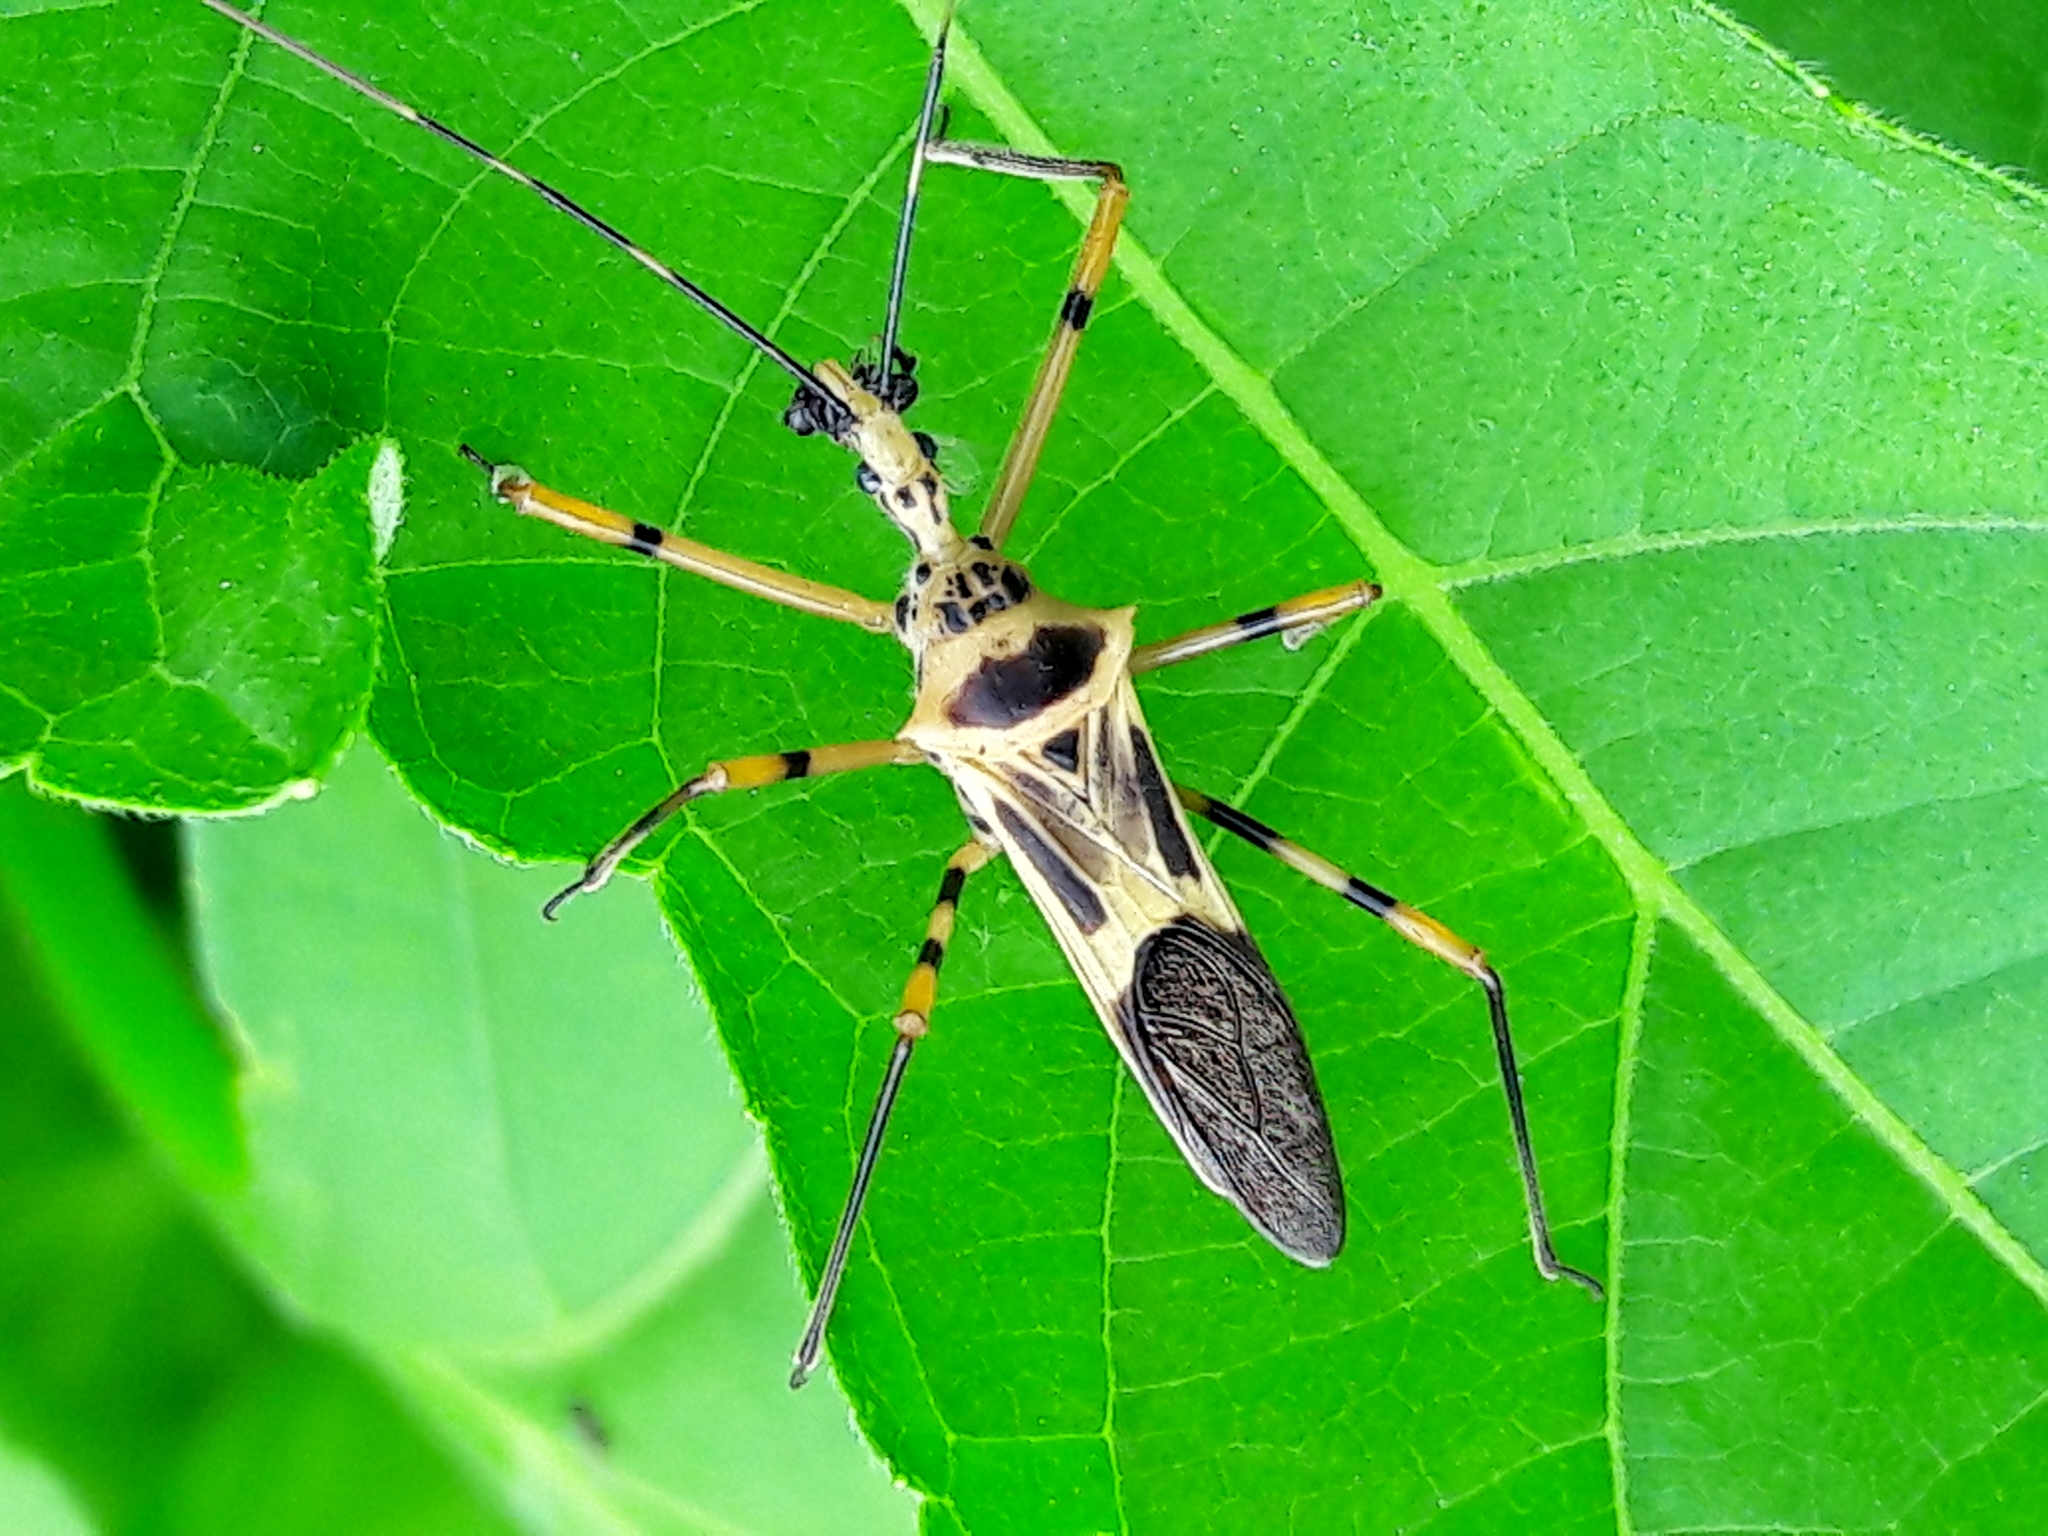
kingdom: Animalia
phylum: Arthropoda
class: Insecta
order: Hemiptera
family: Reduviidae
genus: Zelus
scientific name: Zelus armillatus
